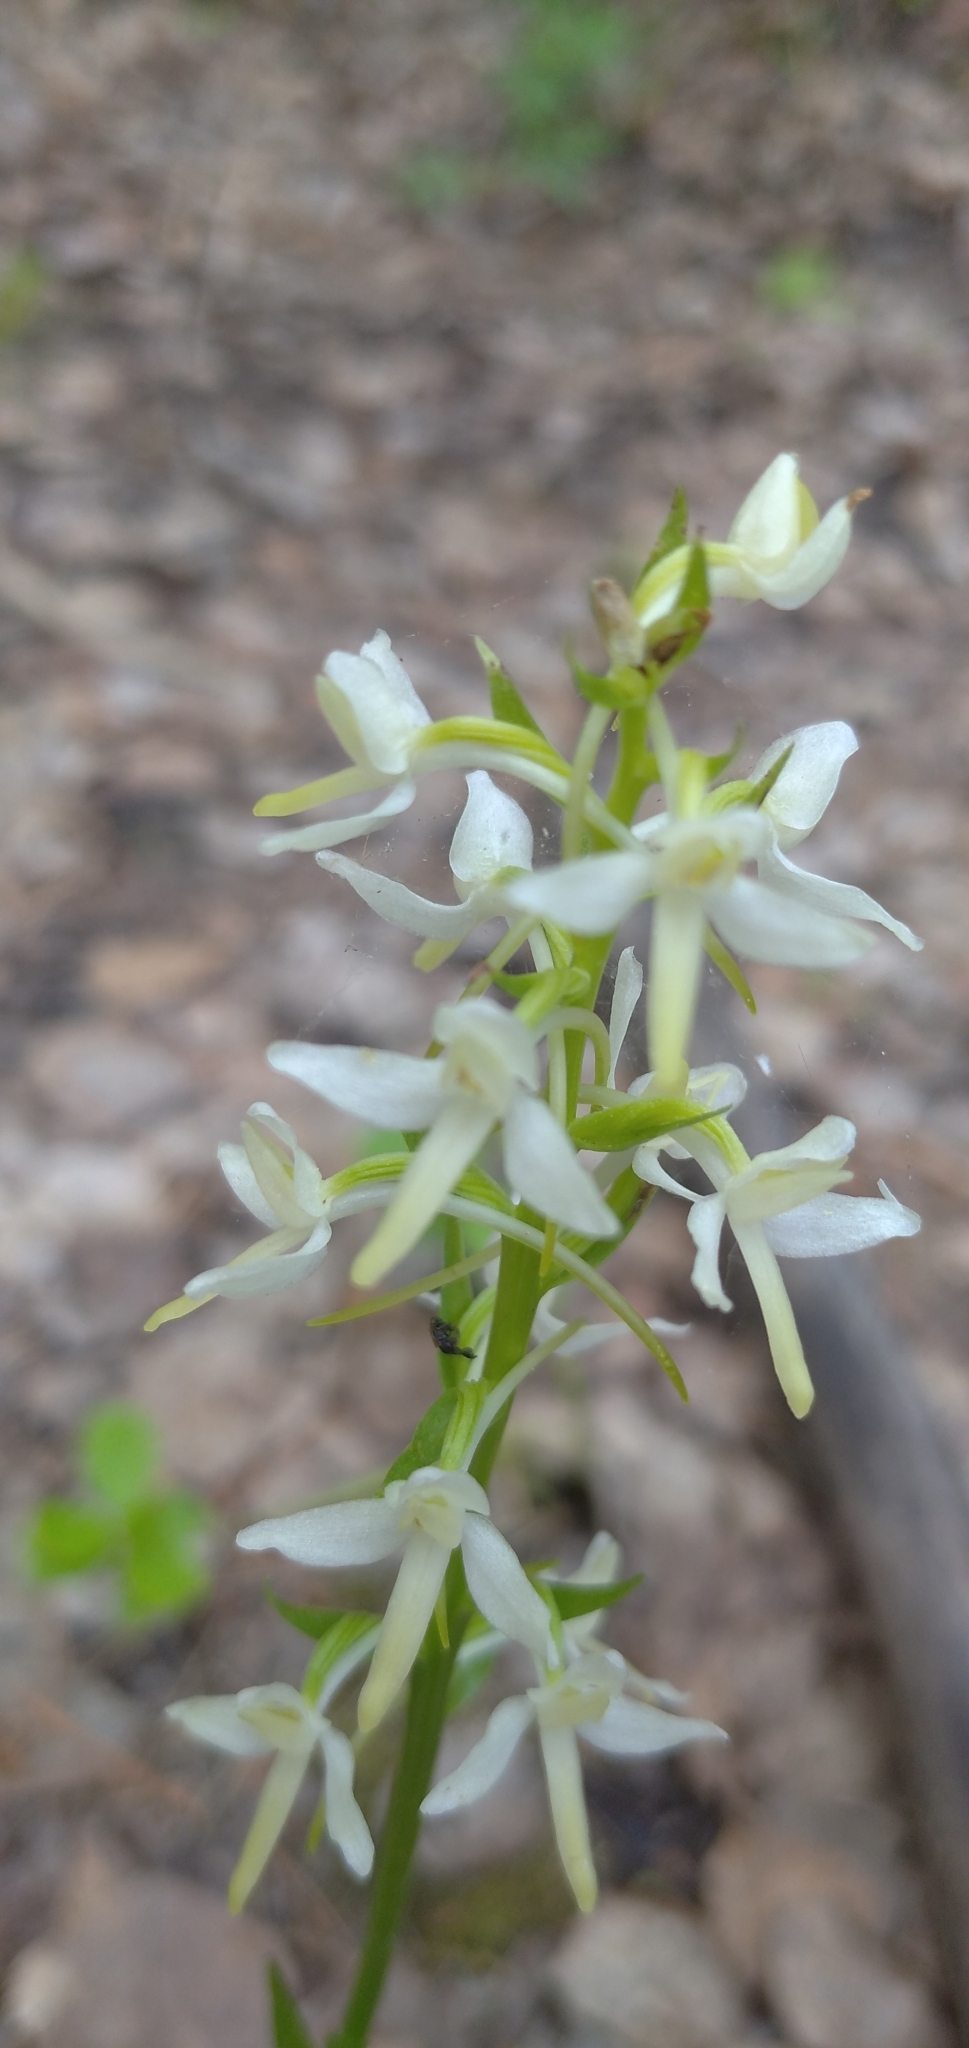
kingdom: Plantae
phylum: Tracheophyta
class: Liliopsida
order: Asparagales
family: Orchidaceae
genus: Platanthera
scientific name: Platanthera bifolia
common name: Lesser butterfly-orchid
